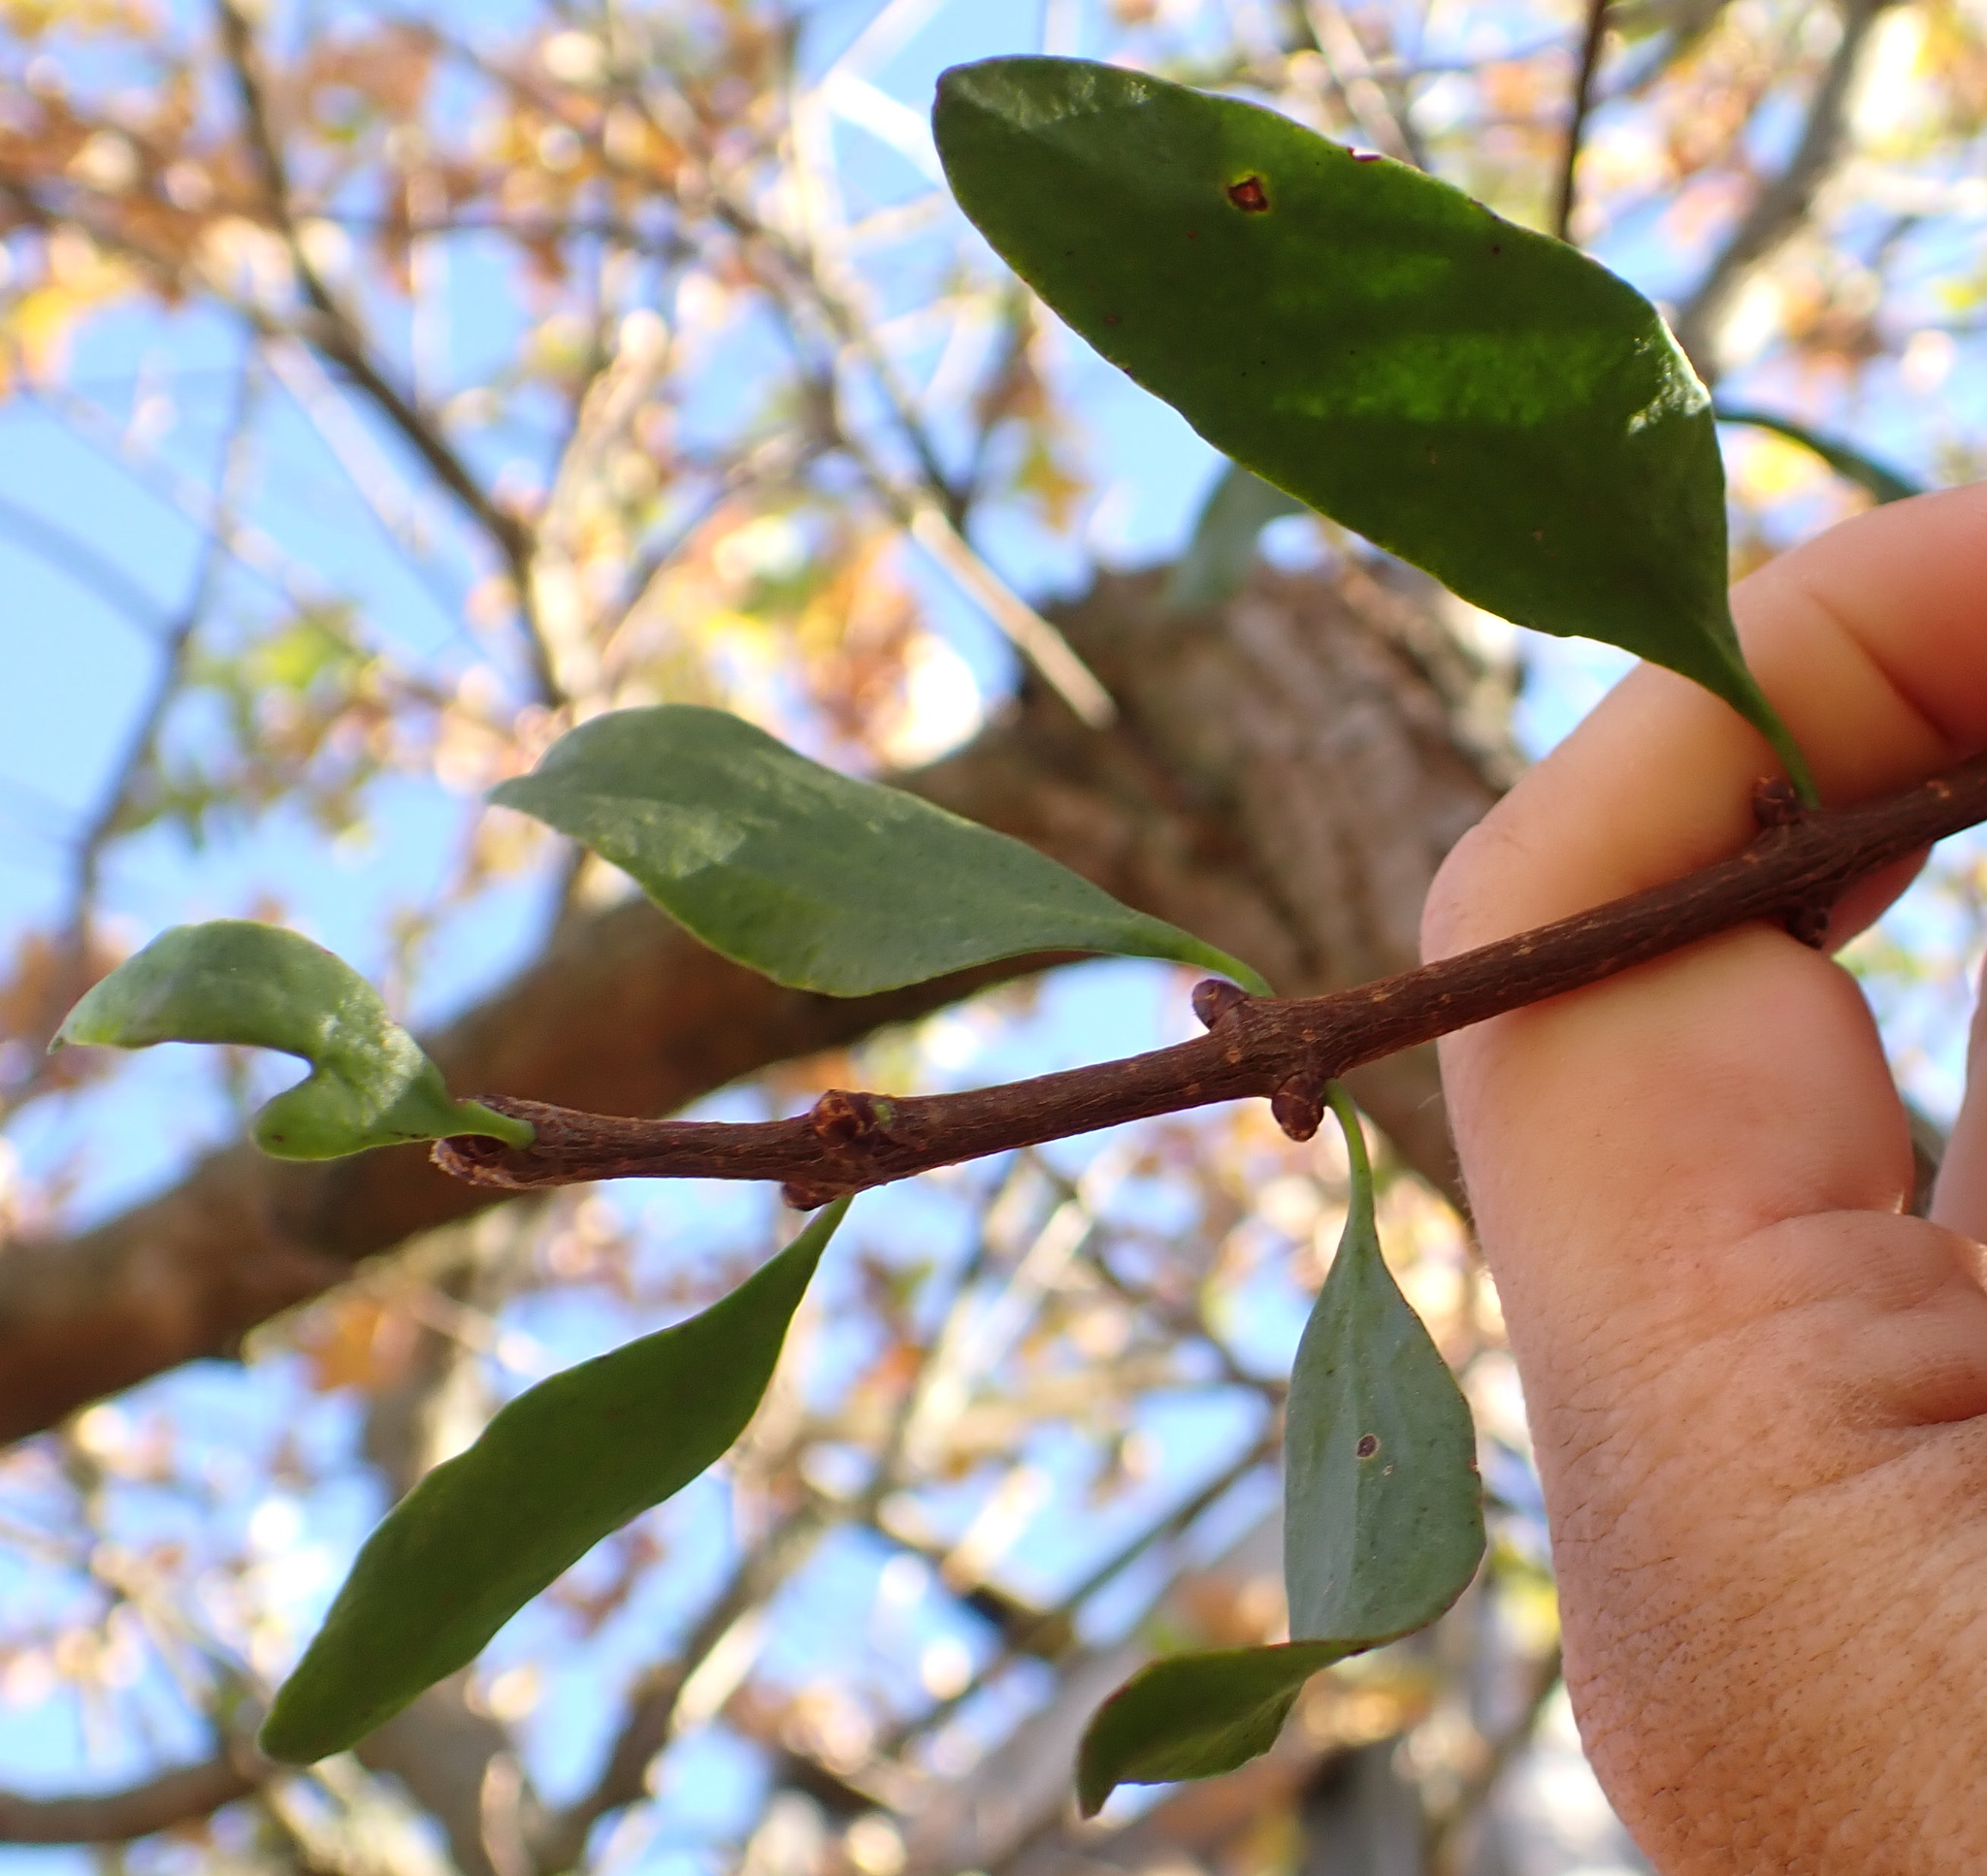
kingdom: Plantae
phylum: Tracheophyta
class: Magnoliopsida
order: Santalales
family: Loranthaceae
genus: Loranthus
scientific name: Loranthus europaeus
